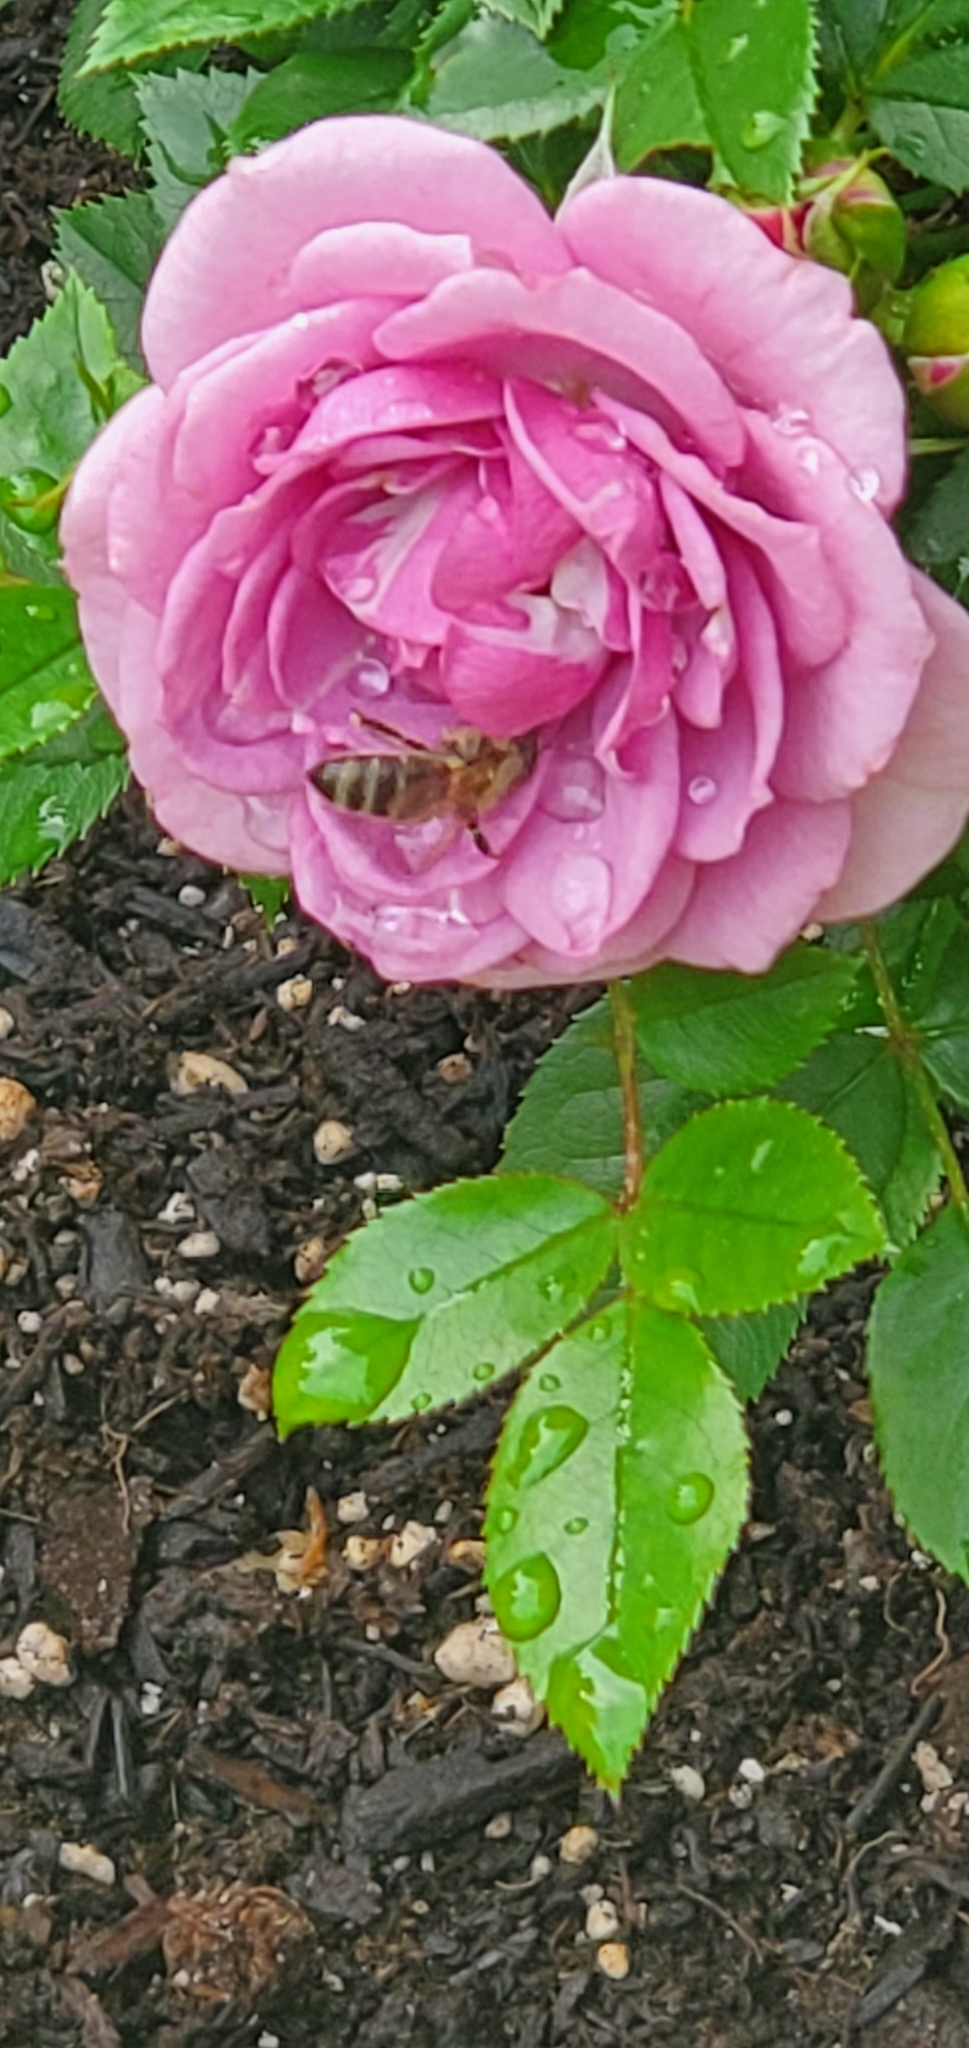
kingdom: Animalia
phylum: Arthropoda
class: Insecta
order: Hymenoptera
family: Apidae
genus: Apis
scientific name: Apis mellifera
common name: Honey bee
